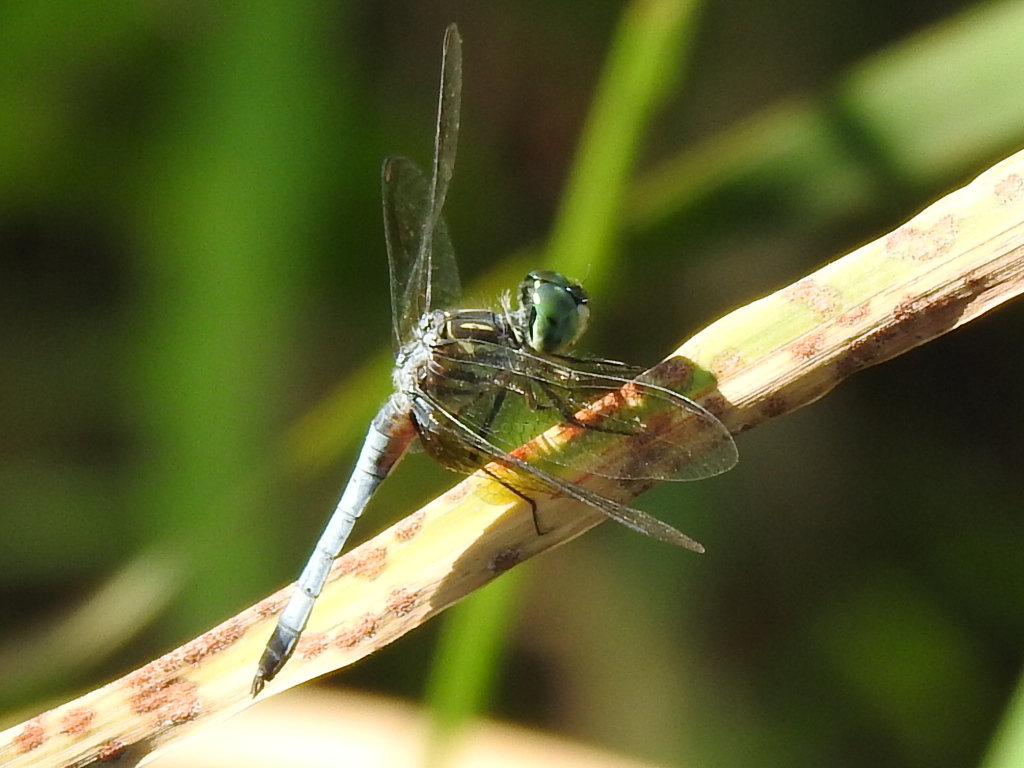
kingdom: Animalia
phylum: Arthropoda
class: Insecta
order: Odonata
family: Libellulidae
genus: Pachydiplax
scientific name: Pachydiplax longipennis
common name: Blue dasher
